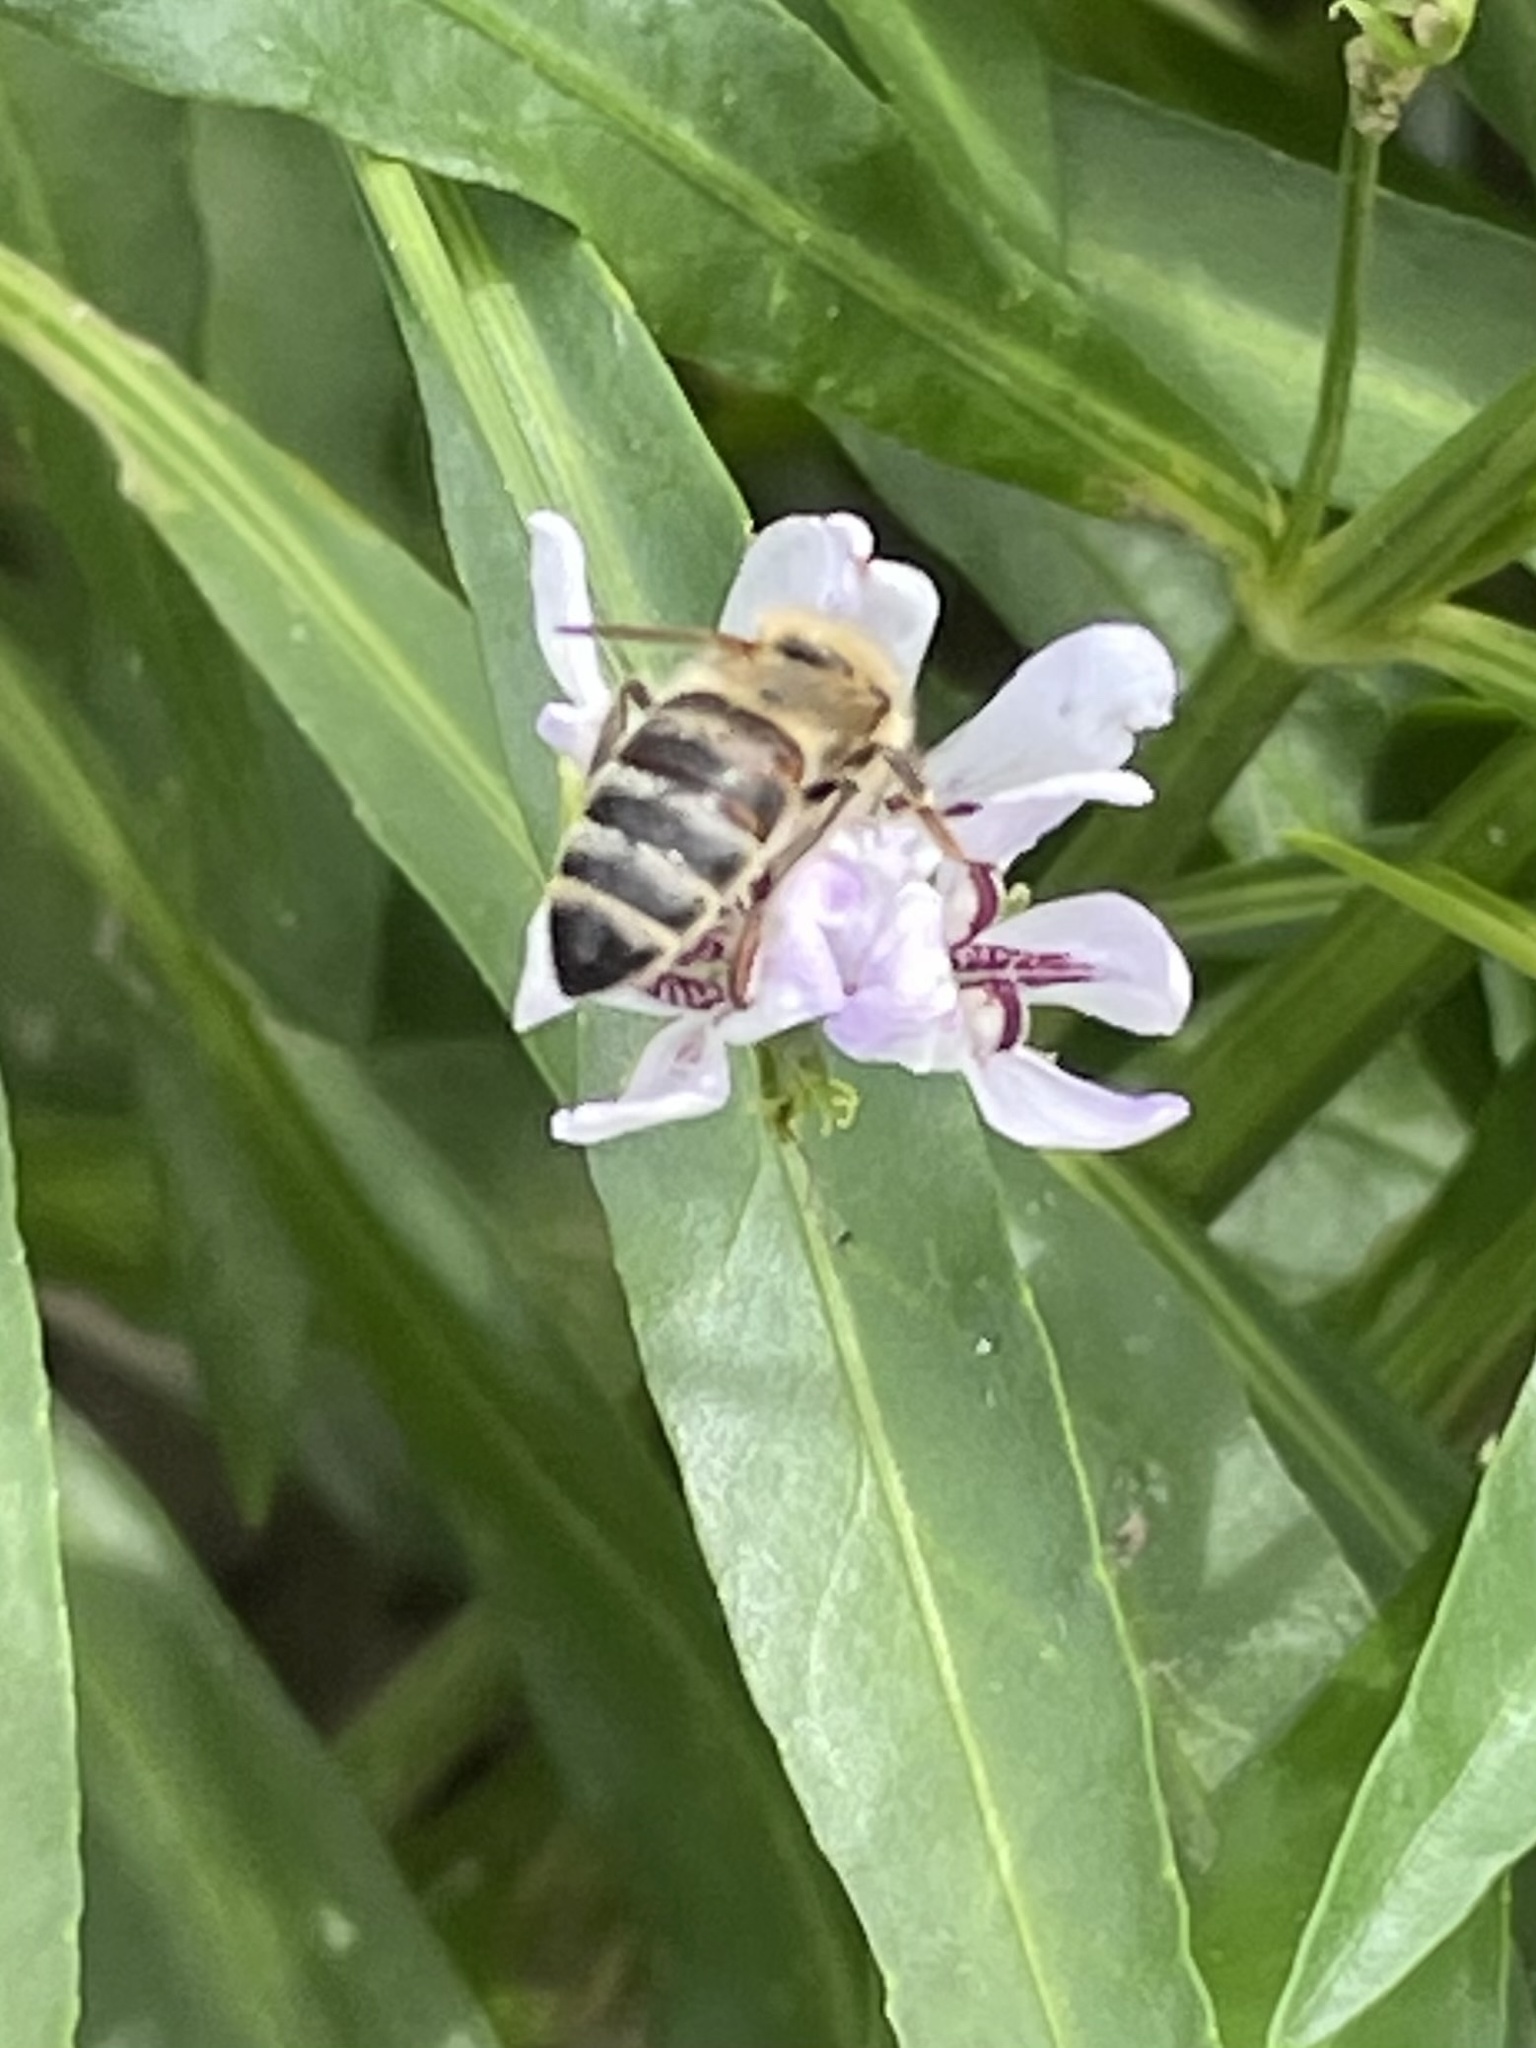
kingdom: Animalia
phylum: Arthropoda
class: Insecta
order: Hymenoptera
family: Apidae
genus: Apis
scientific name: Apis mellifera
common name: Honey bee
